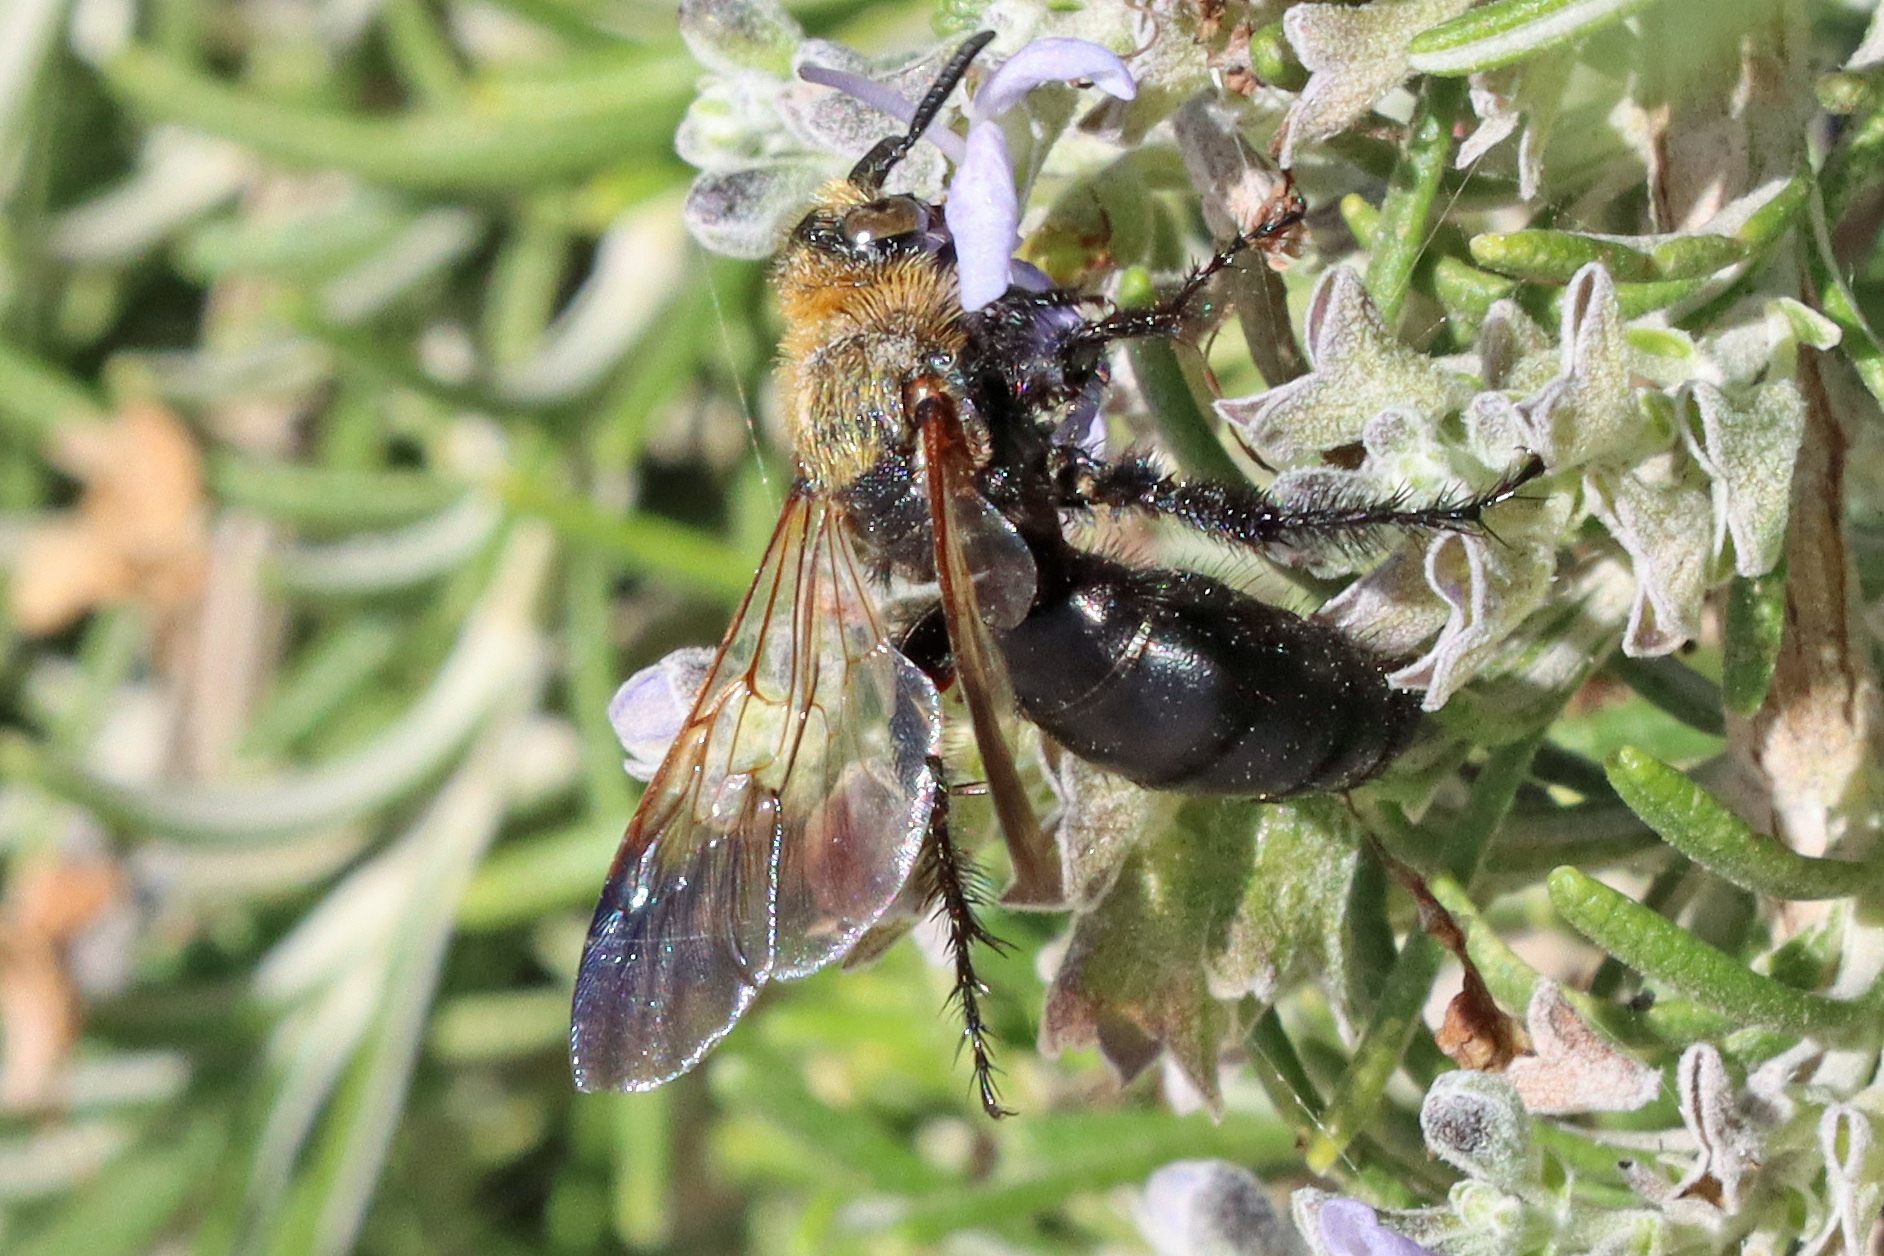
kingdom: Animalia
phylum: Arthropoda
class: Insecta
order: Hymenoptera
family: Scoliidae
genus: Campsomeriella
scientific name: Campsomeriella thoracica
